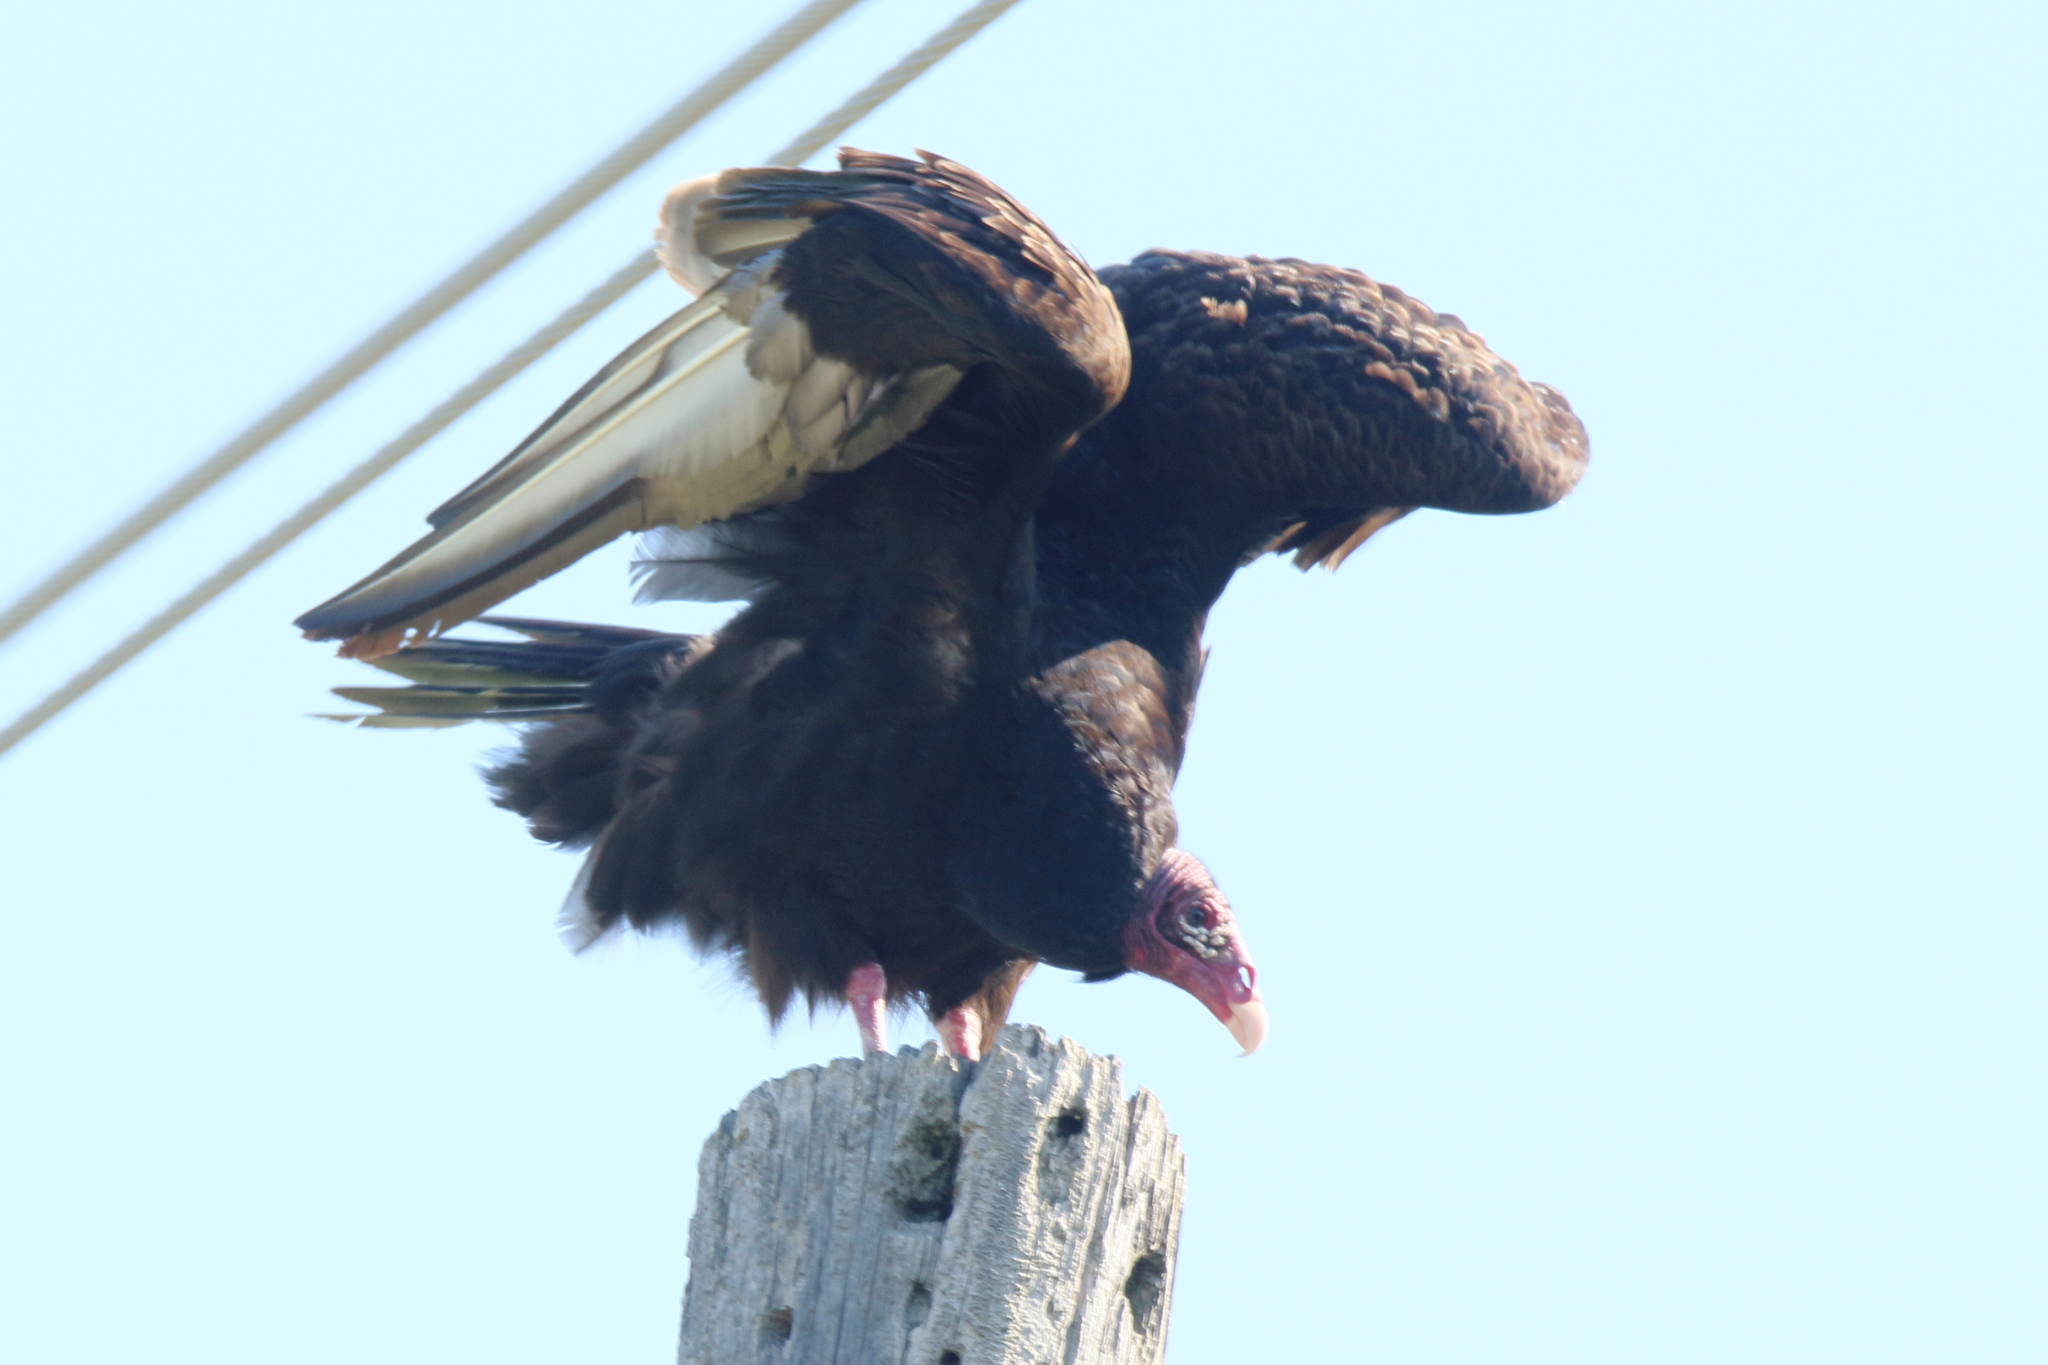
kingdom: Animalia
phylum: Chordata
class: Aves
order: Accipitriformes
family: Cathartidae
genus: Cathartes
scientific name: Cathartes aura
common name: Turkey vulture
